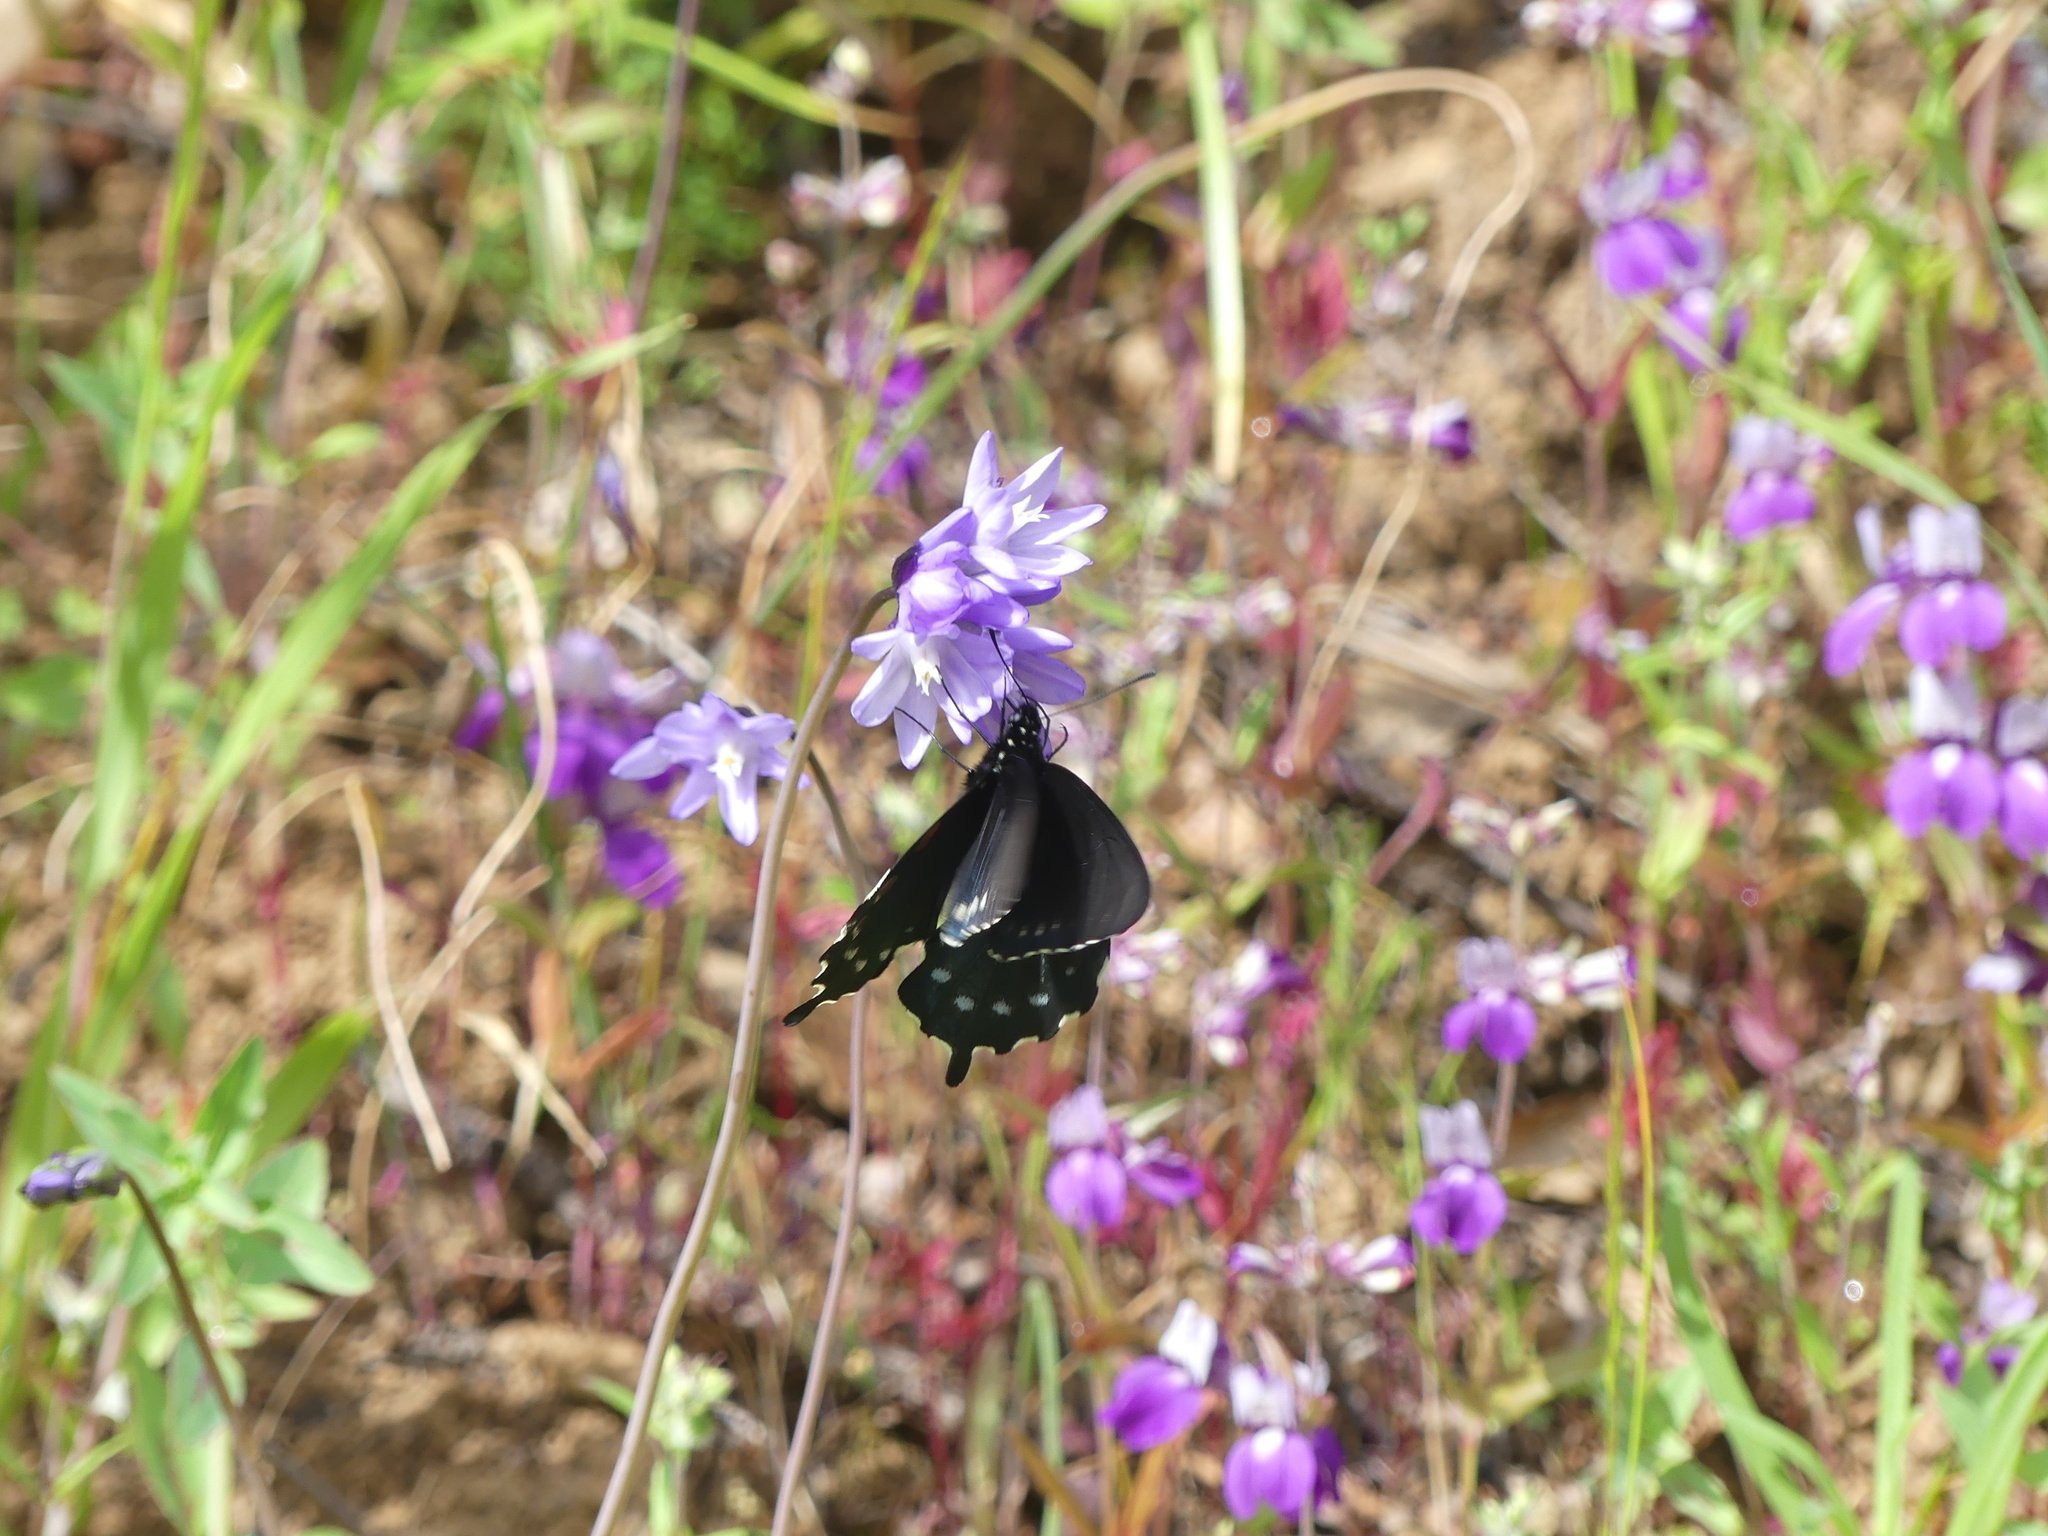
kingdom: Animalia
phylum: Arthropoda
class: Insecta
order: Lepidoptera
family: Papilionidae
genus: Battus
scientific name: Battus philenor
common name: Pipevine swallowtail
